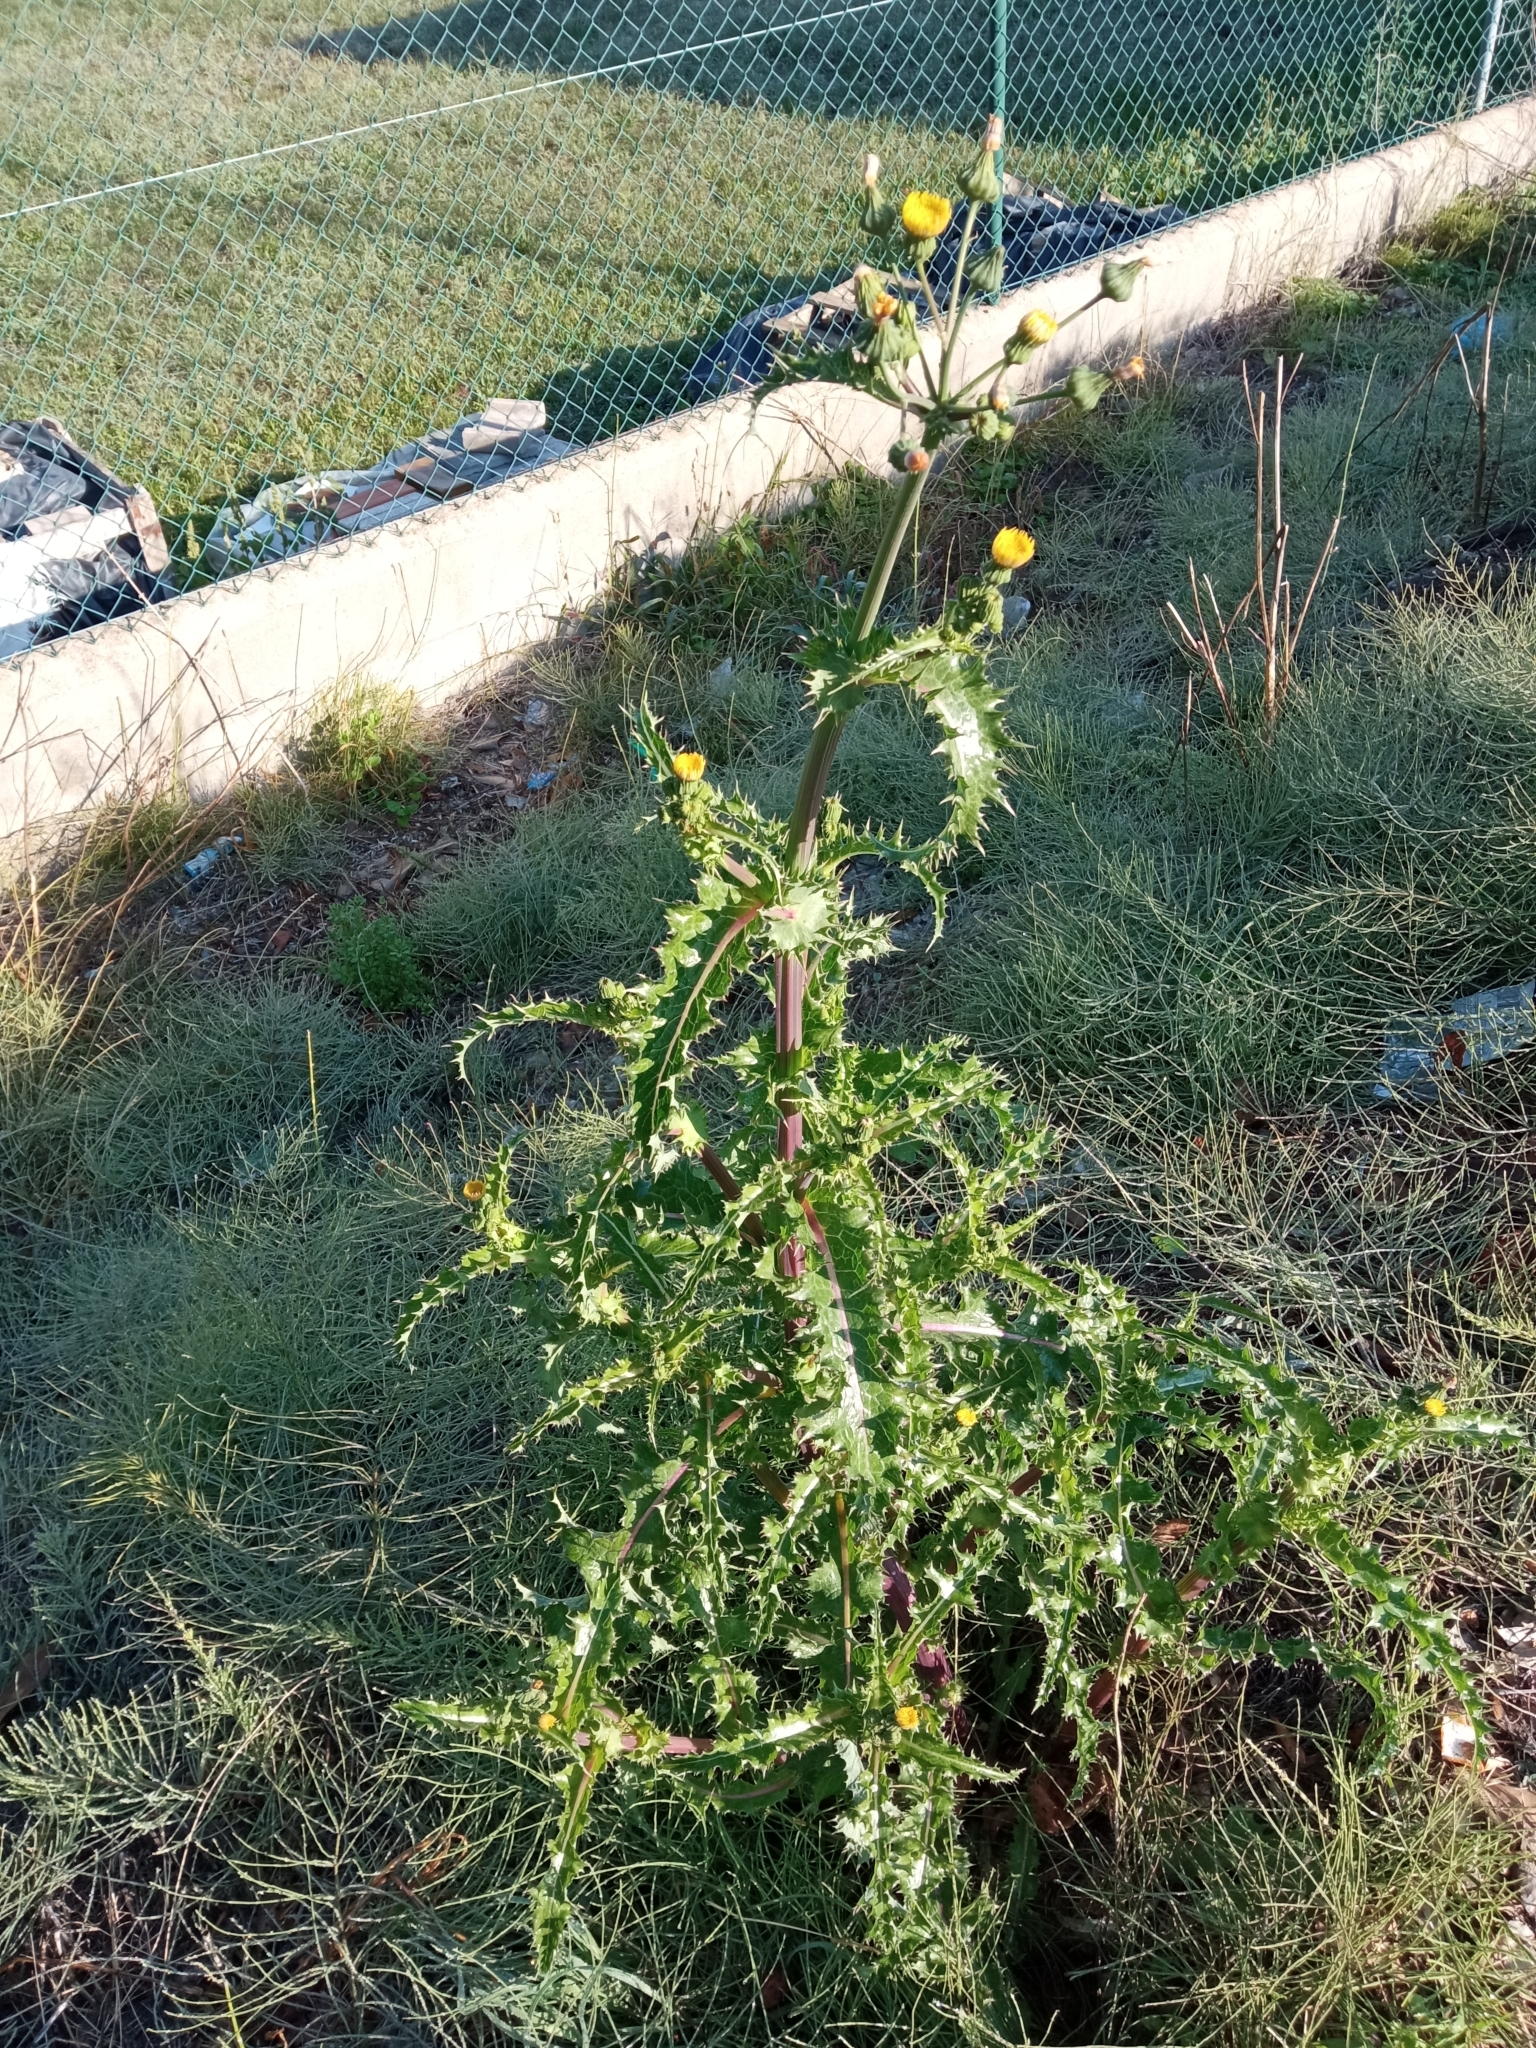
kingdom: Plantae
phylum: Tracheophyta
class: Magnoliopsida
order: Asterales
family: Asteraceae
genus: Sonchus
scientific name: Sonchus asper
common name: Prickly sow-thistle
